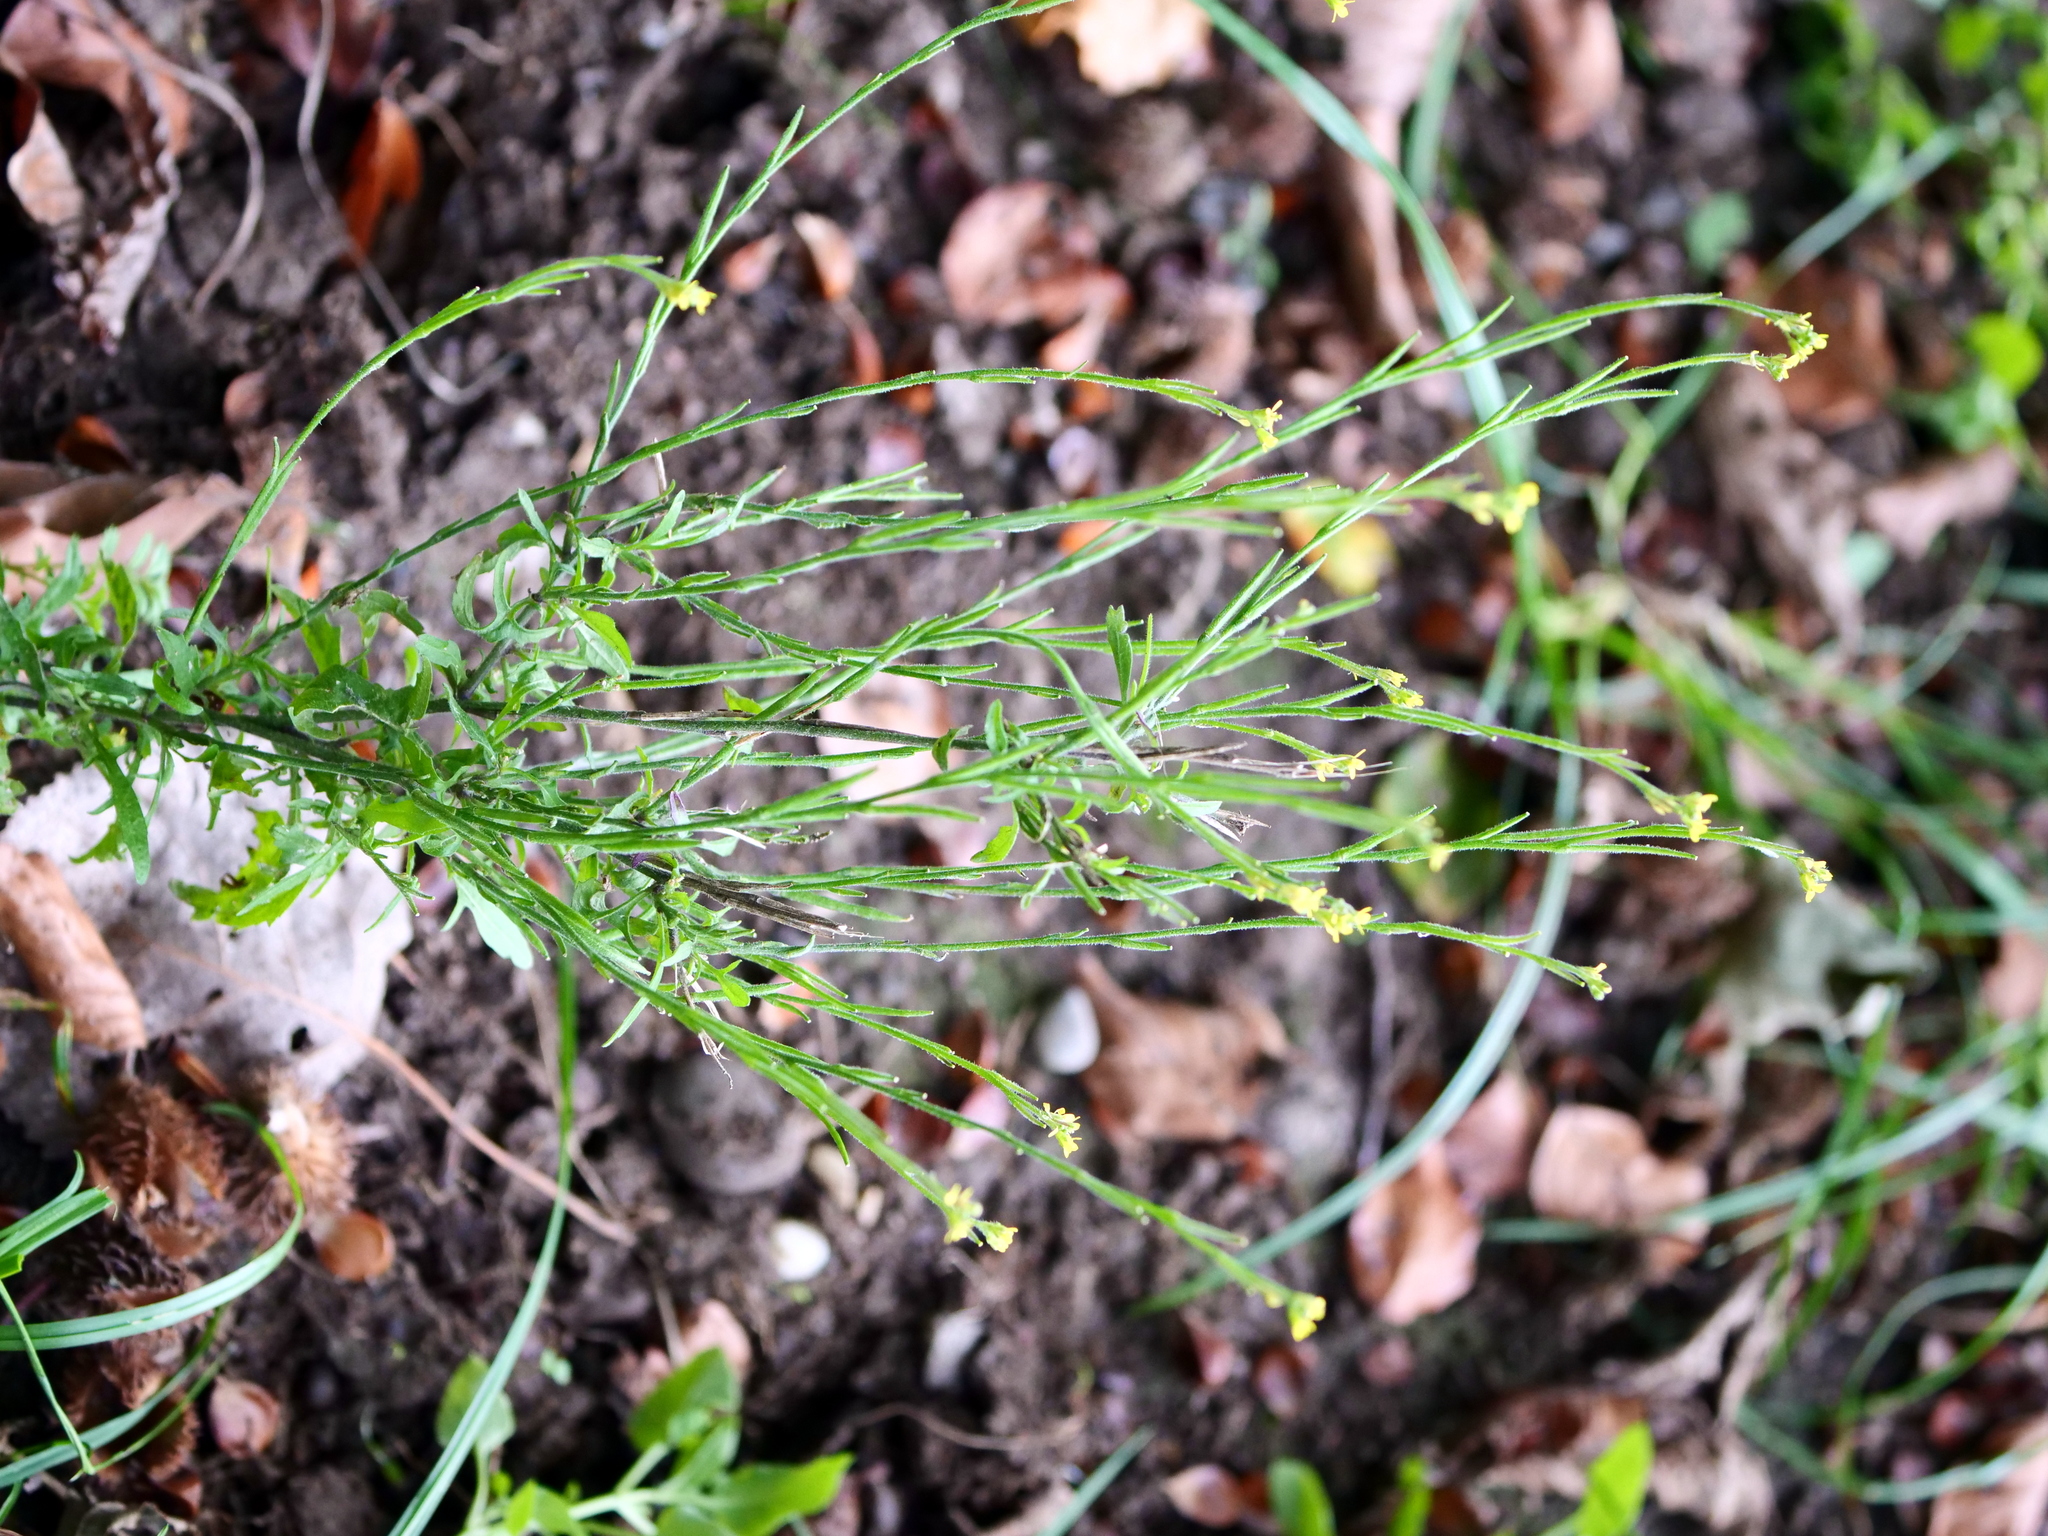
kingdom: Plantae
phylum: Tracheophyta
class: Magnoliopsida
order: Brassicales
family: Brassicaceae
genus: Sisymbrium
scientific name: Sisymbrium officinale
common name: Hedge mustard
